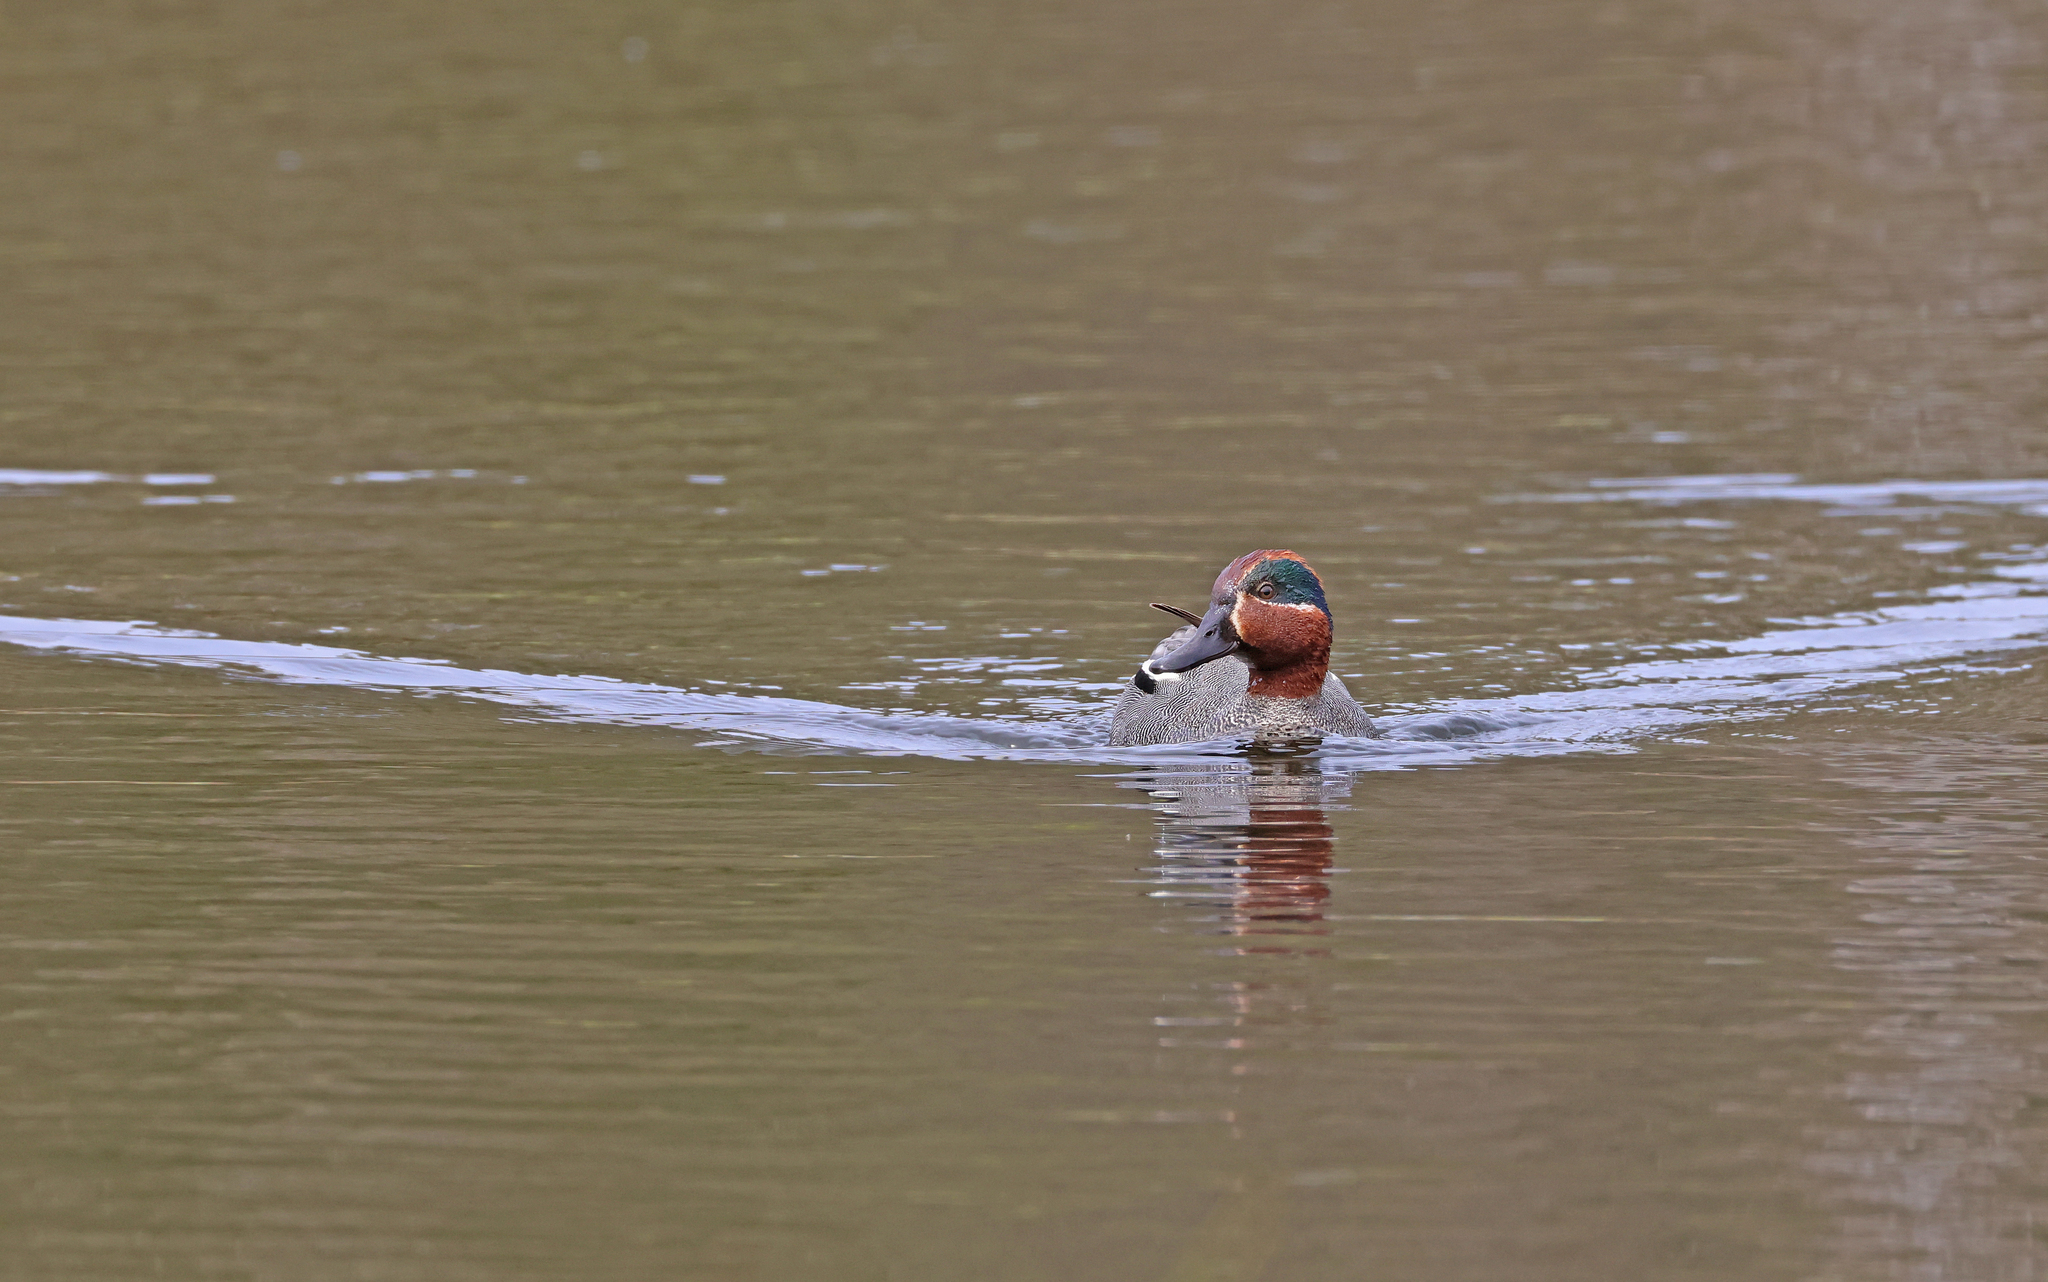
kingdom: Animalia
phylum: Chordata
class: Aves
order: Anseriformes
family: Anatidae
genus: Anas
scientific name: Anas crecca
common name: Eurasian teal
